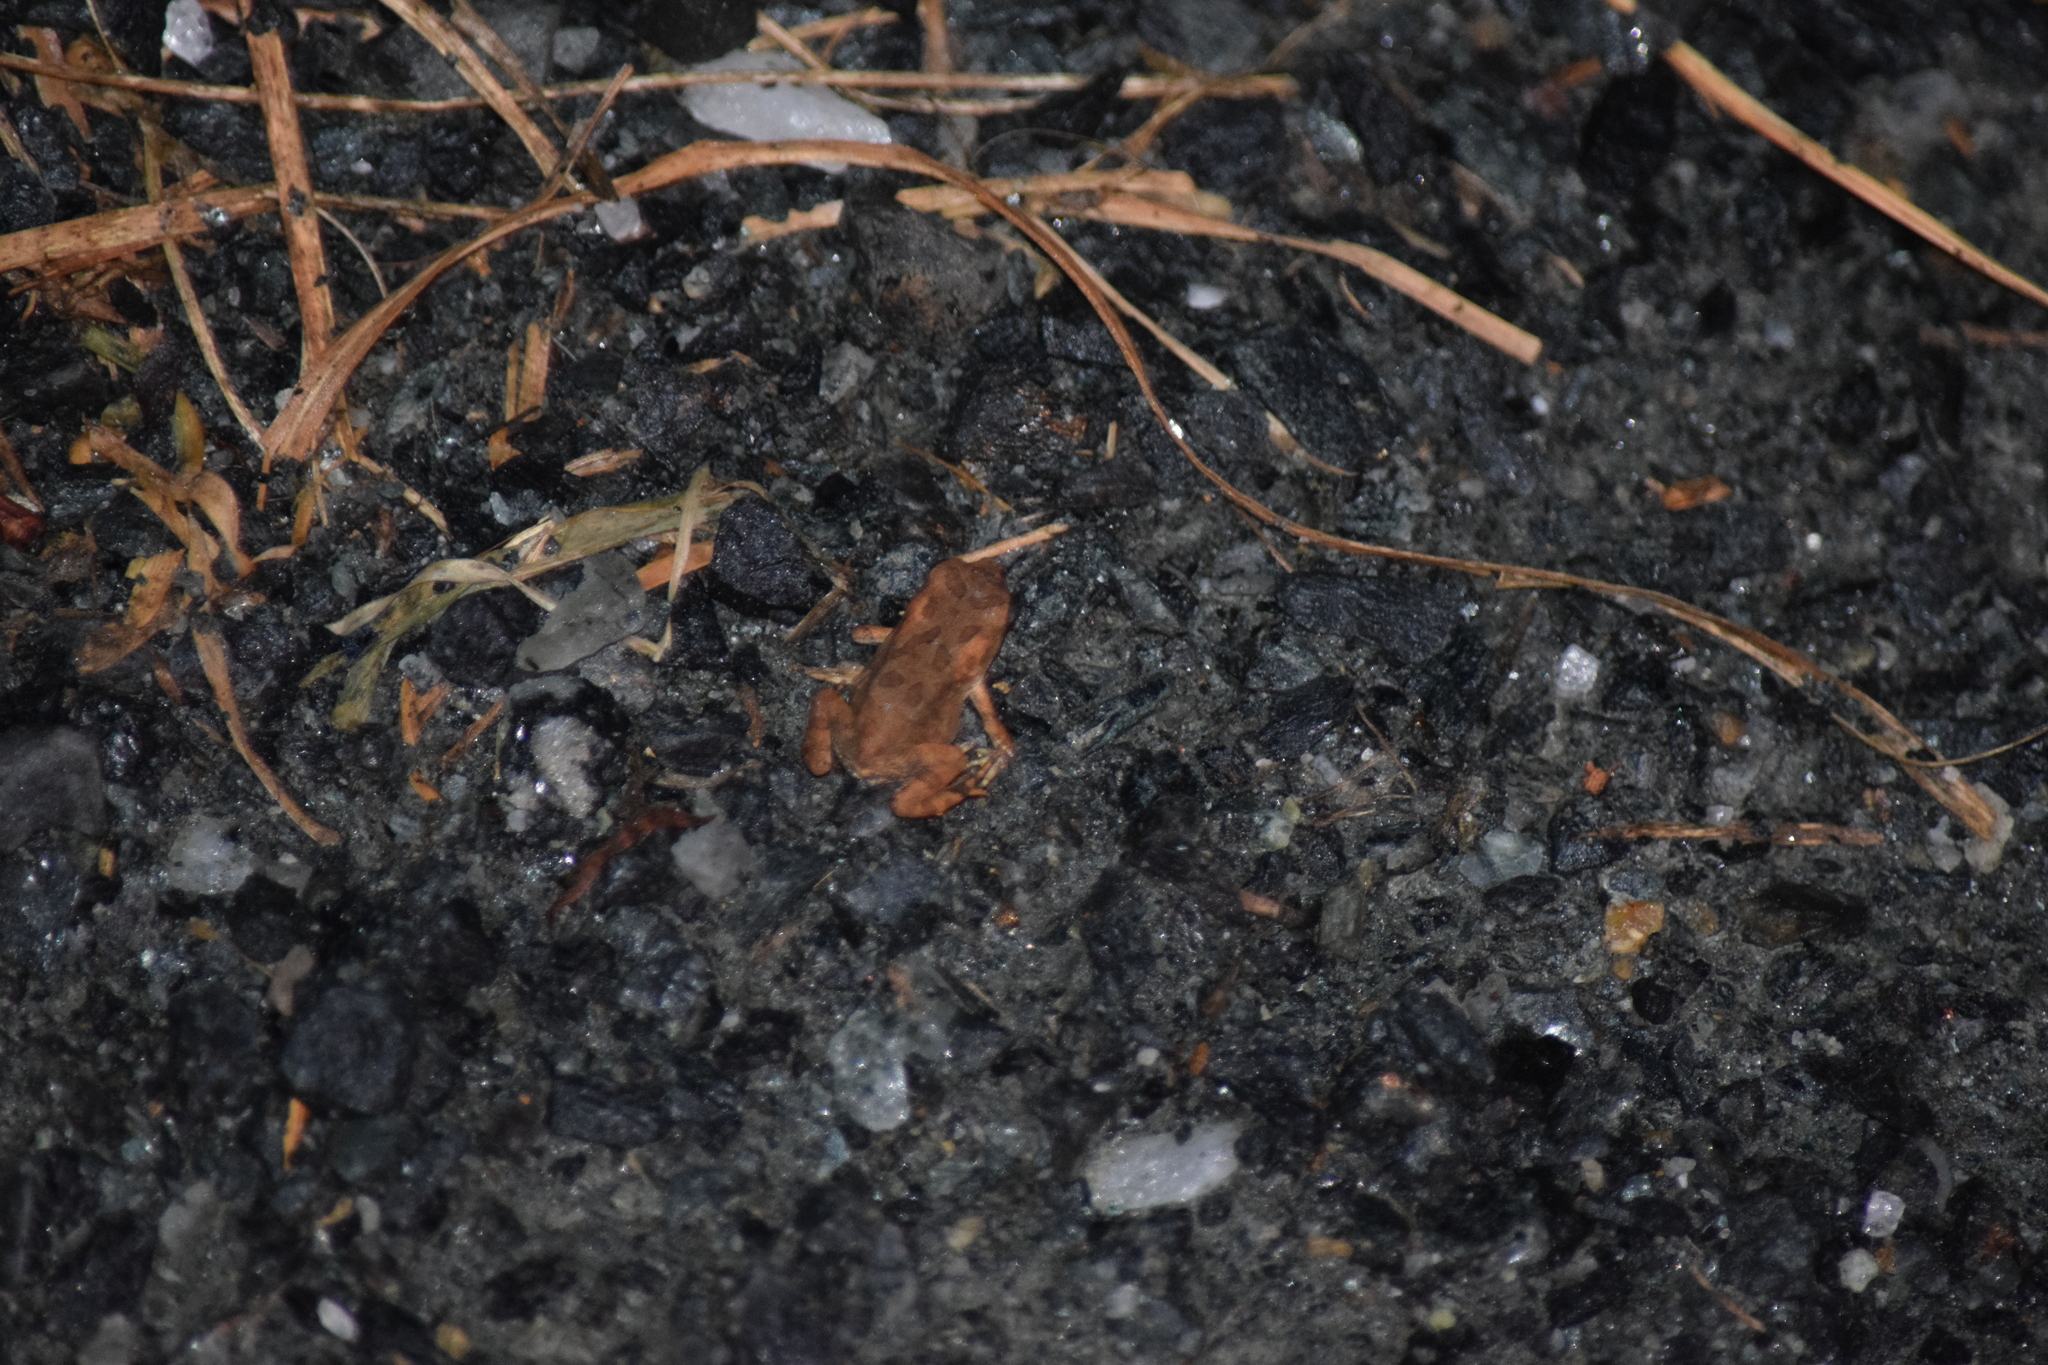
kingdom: Animalia
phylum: Chordata
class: Amphibia
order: Anura
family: Bufonidae
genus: Anaxyrus
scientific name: Anaxyrus fowleri
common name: Fowler's toad
